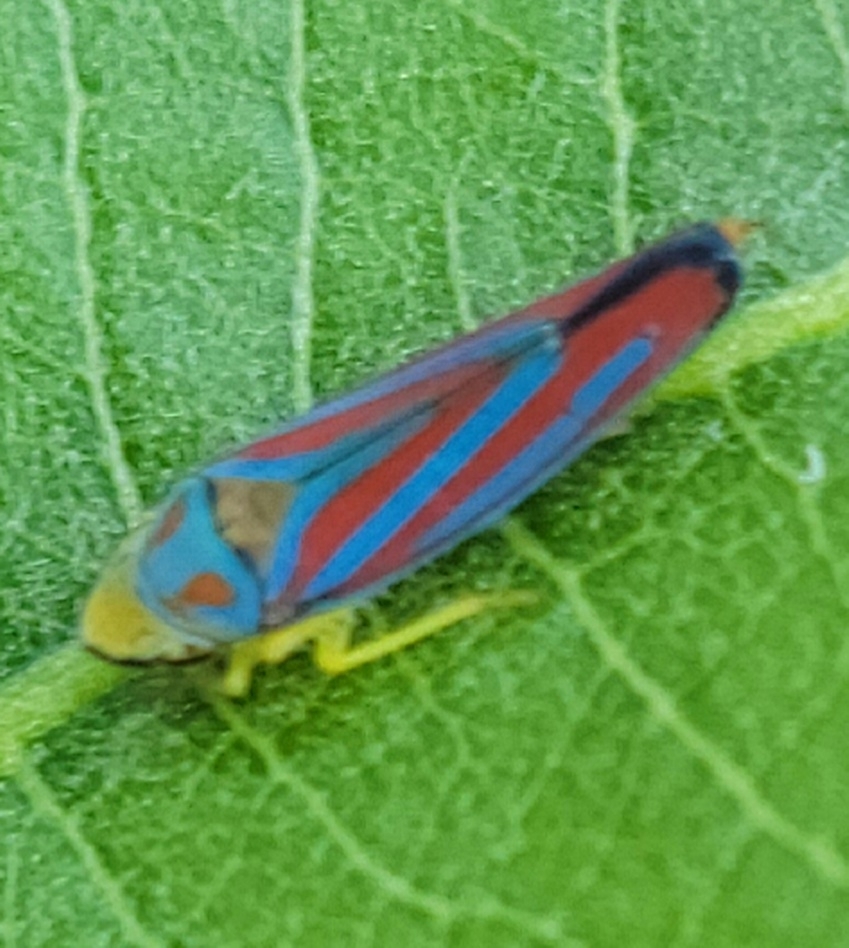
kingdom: Animalia
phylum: Arthropoda
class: Insecta
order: Hemiptera
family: Cicadellidae
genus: Graphocephala
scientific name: Graphocephala coccinea
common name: Candy-striped leafhopper
